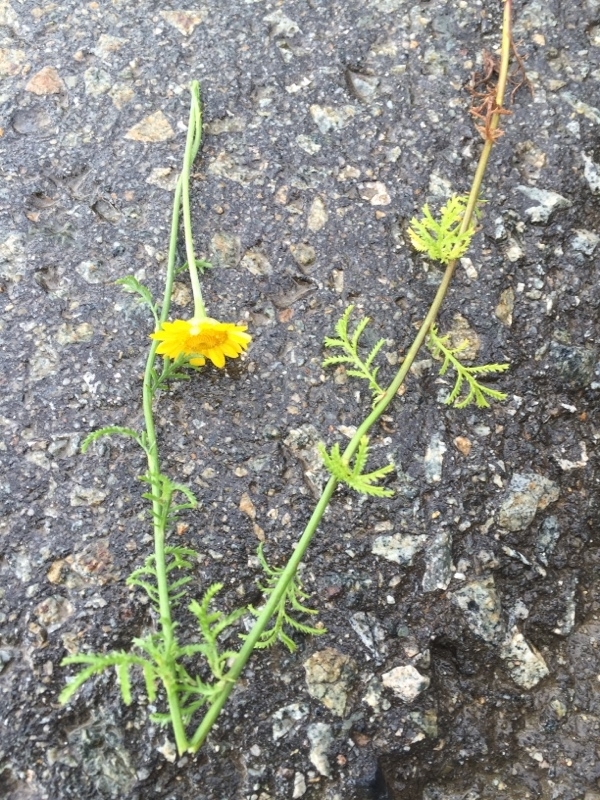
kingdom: Plantae
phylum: Tracheophyta
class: Magnoliopsida
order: Asterales
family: Asteraceae
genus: Cota
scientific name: Cota tinctoria
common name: Golden chamomile
